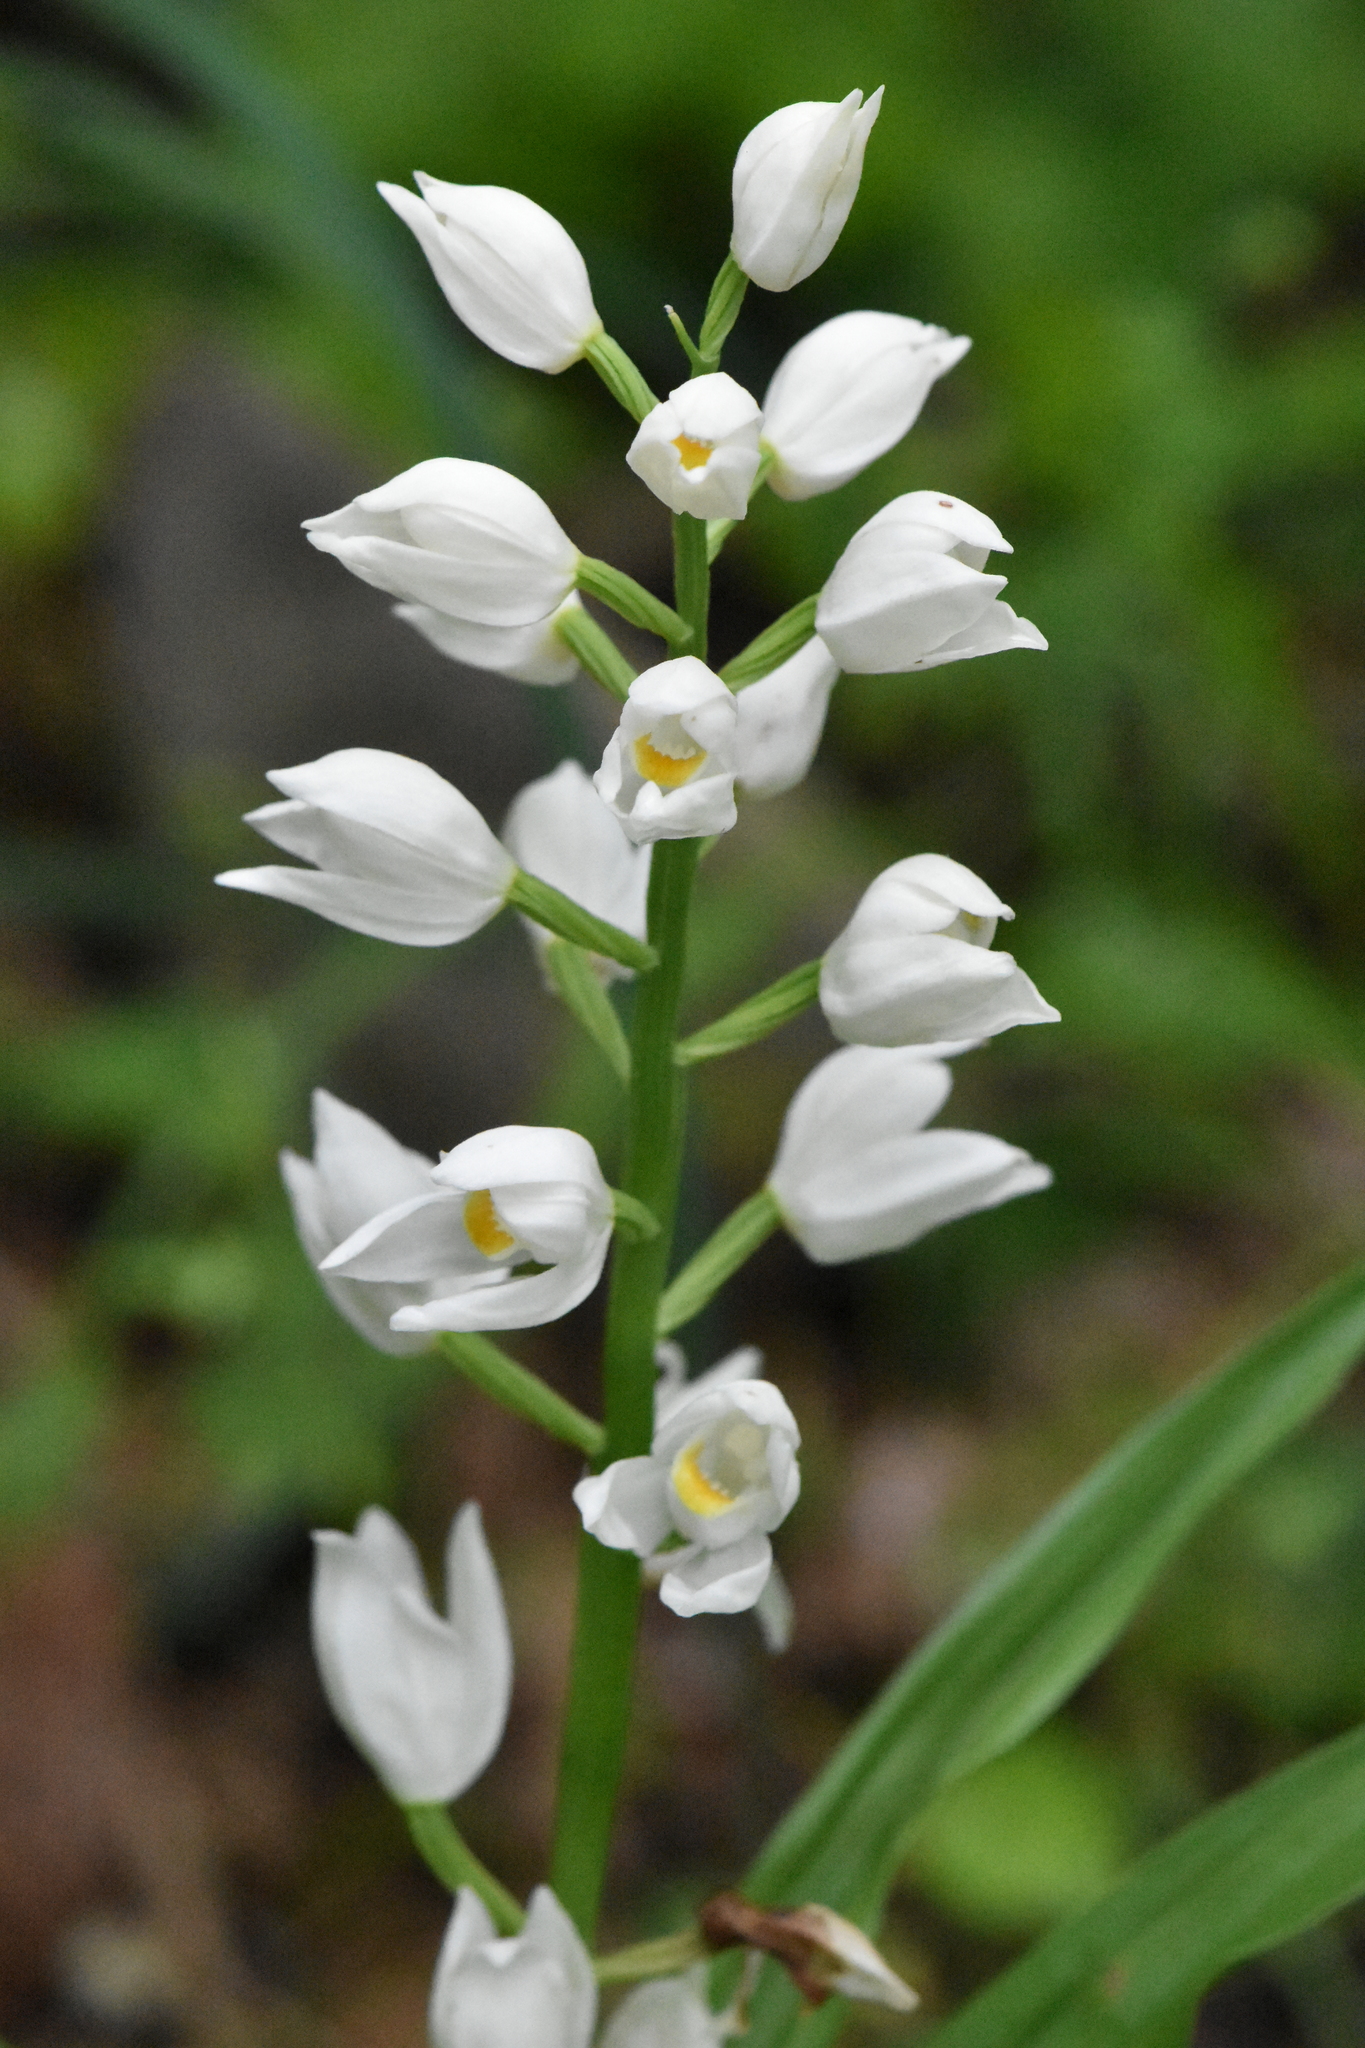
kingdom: Plantae
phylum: Tracheophyta
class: Liliopsida
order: Asparagales
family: Orchidaceae
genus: Cephalanthera
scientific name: Cephalanthera longifolia
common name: Narrow-leaved helleborine
